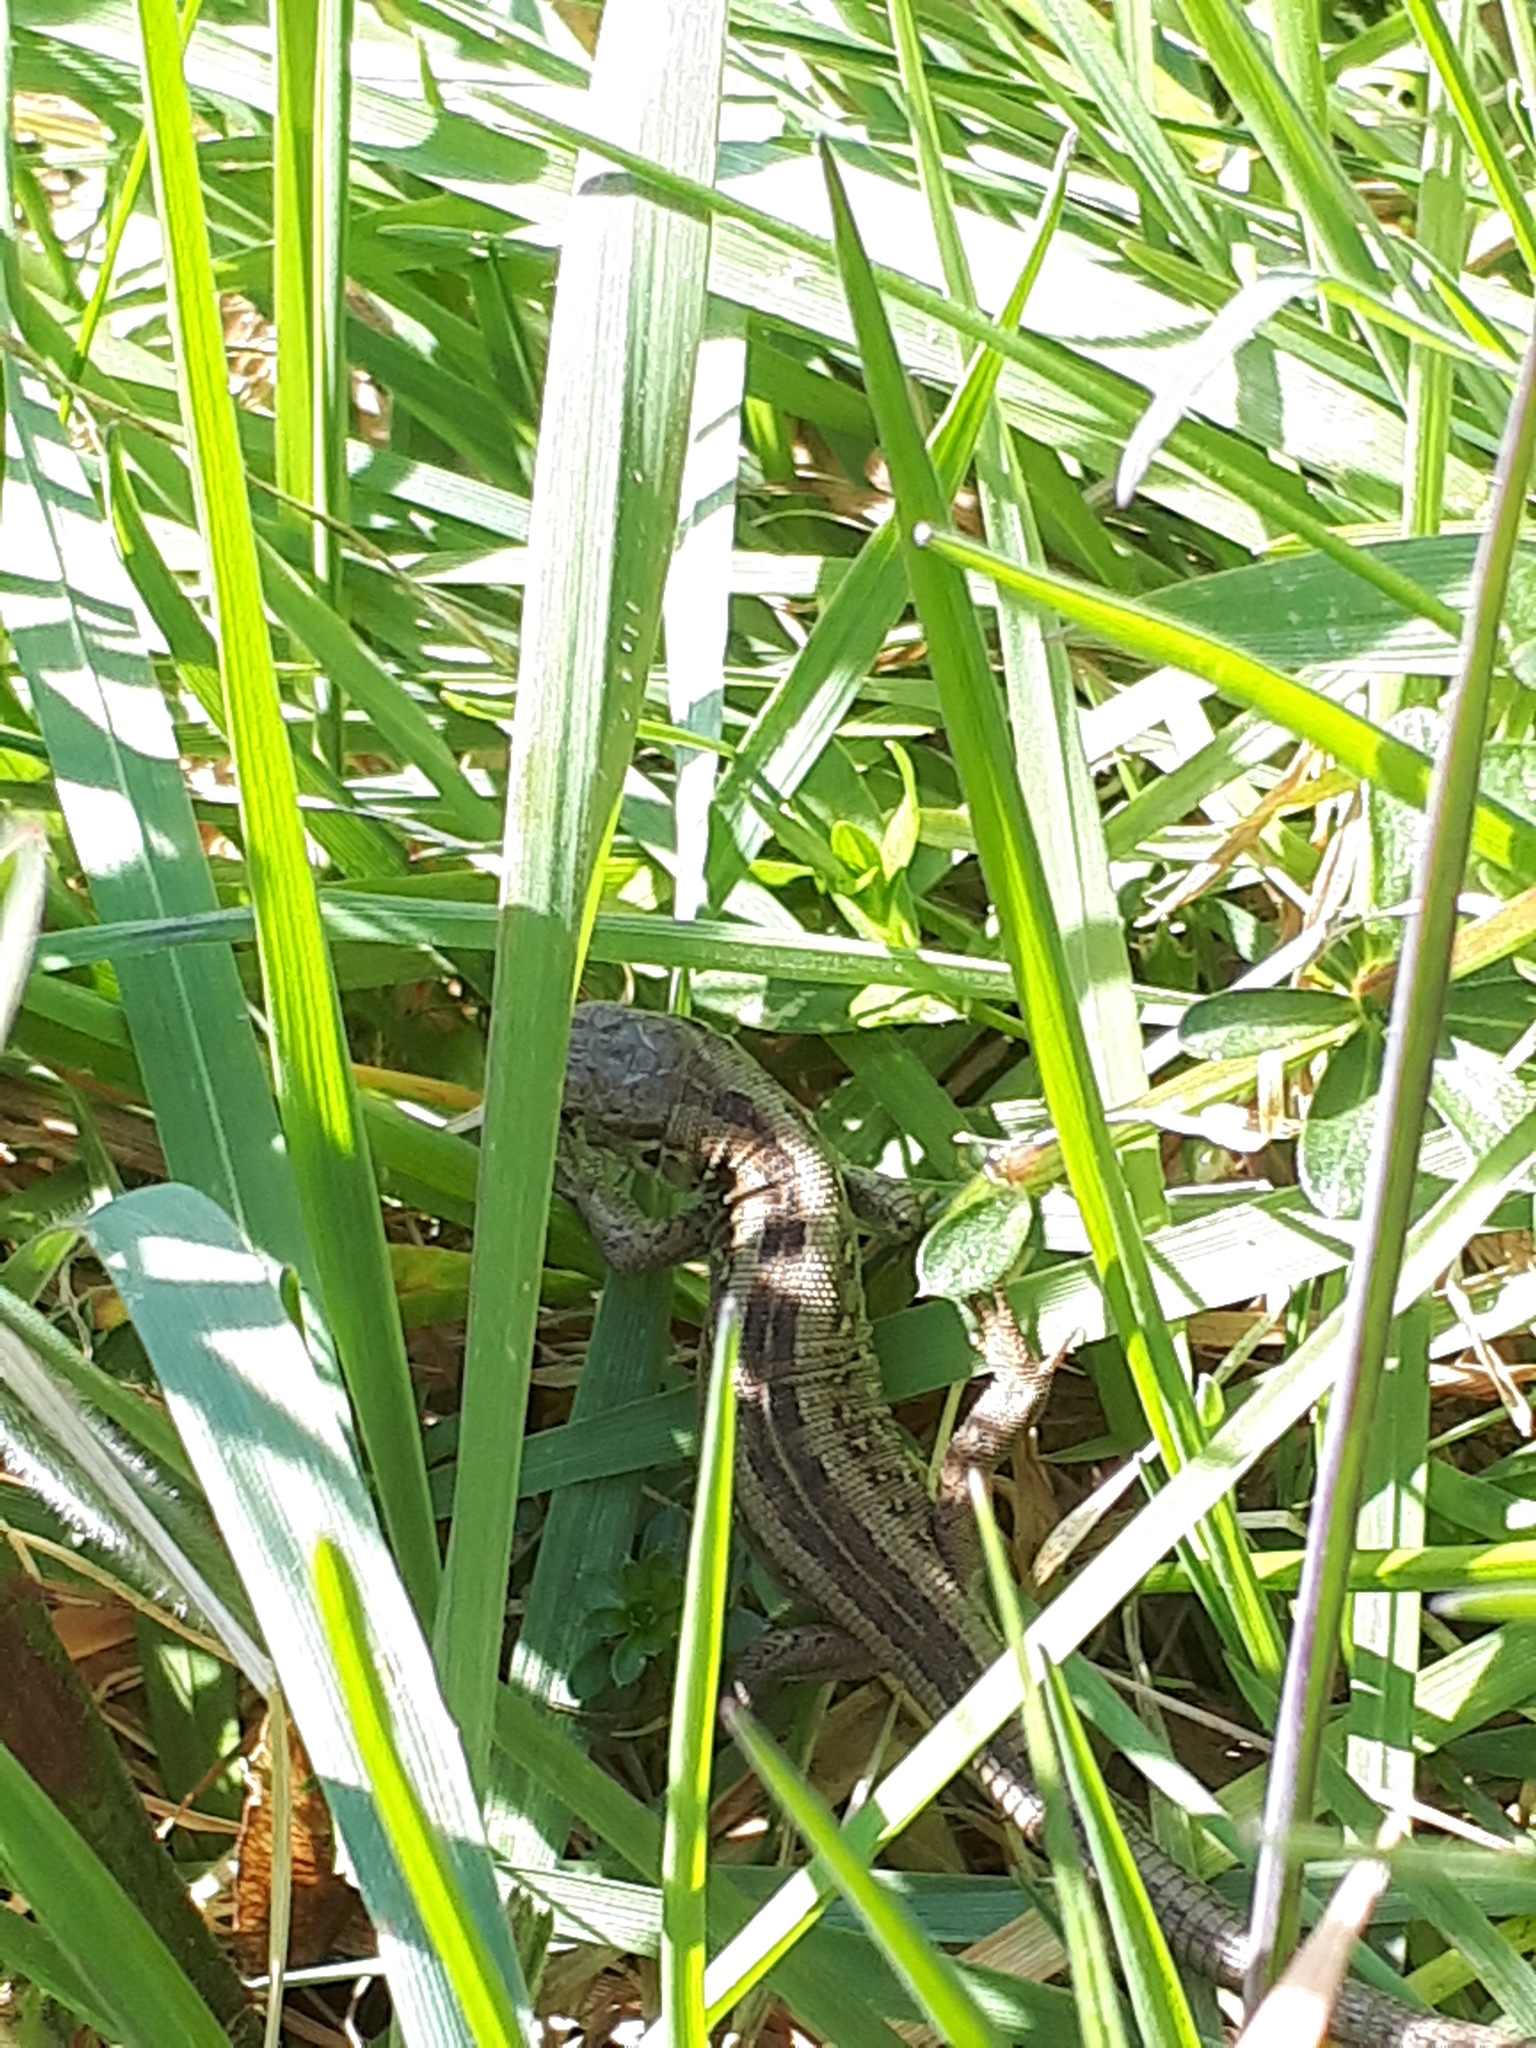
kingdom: Animalia
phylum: Chordata
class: Squamata
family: Lacertidae
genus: Lacerta
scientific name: Lacerta agilis
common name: Sand lizard
